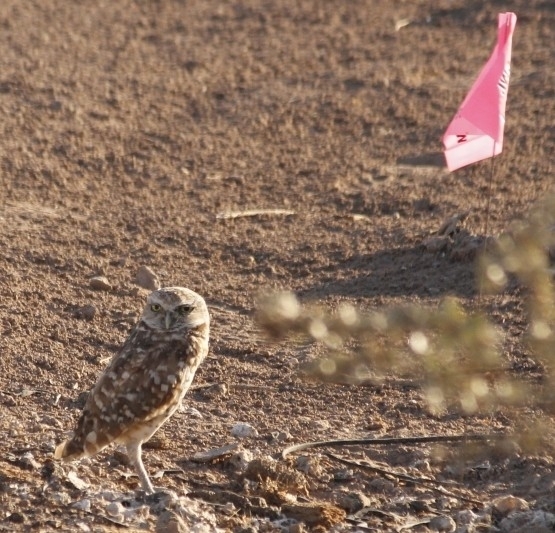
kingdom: Animalia
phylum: Chordata
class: Aves
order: Strigiformes
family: Strigidae
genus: Athene
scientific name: Athene cunicularia
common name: Burrowing owl
